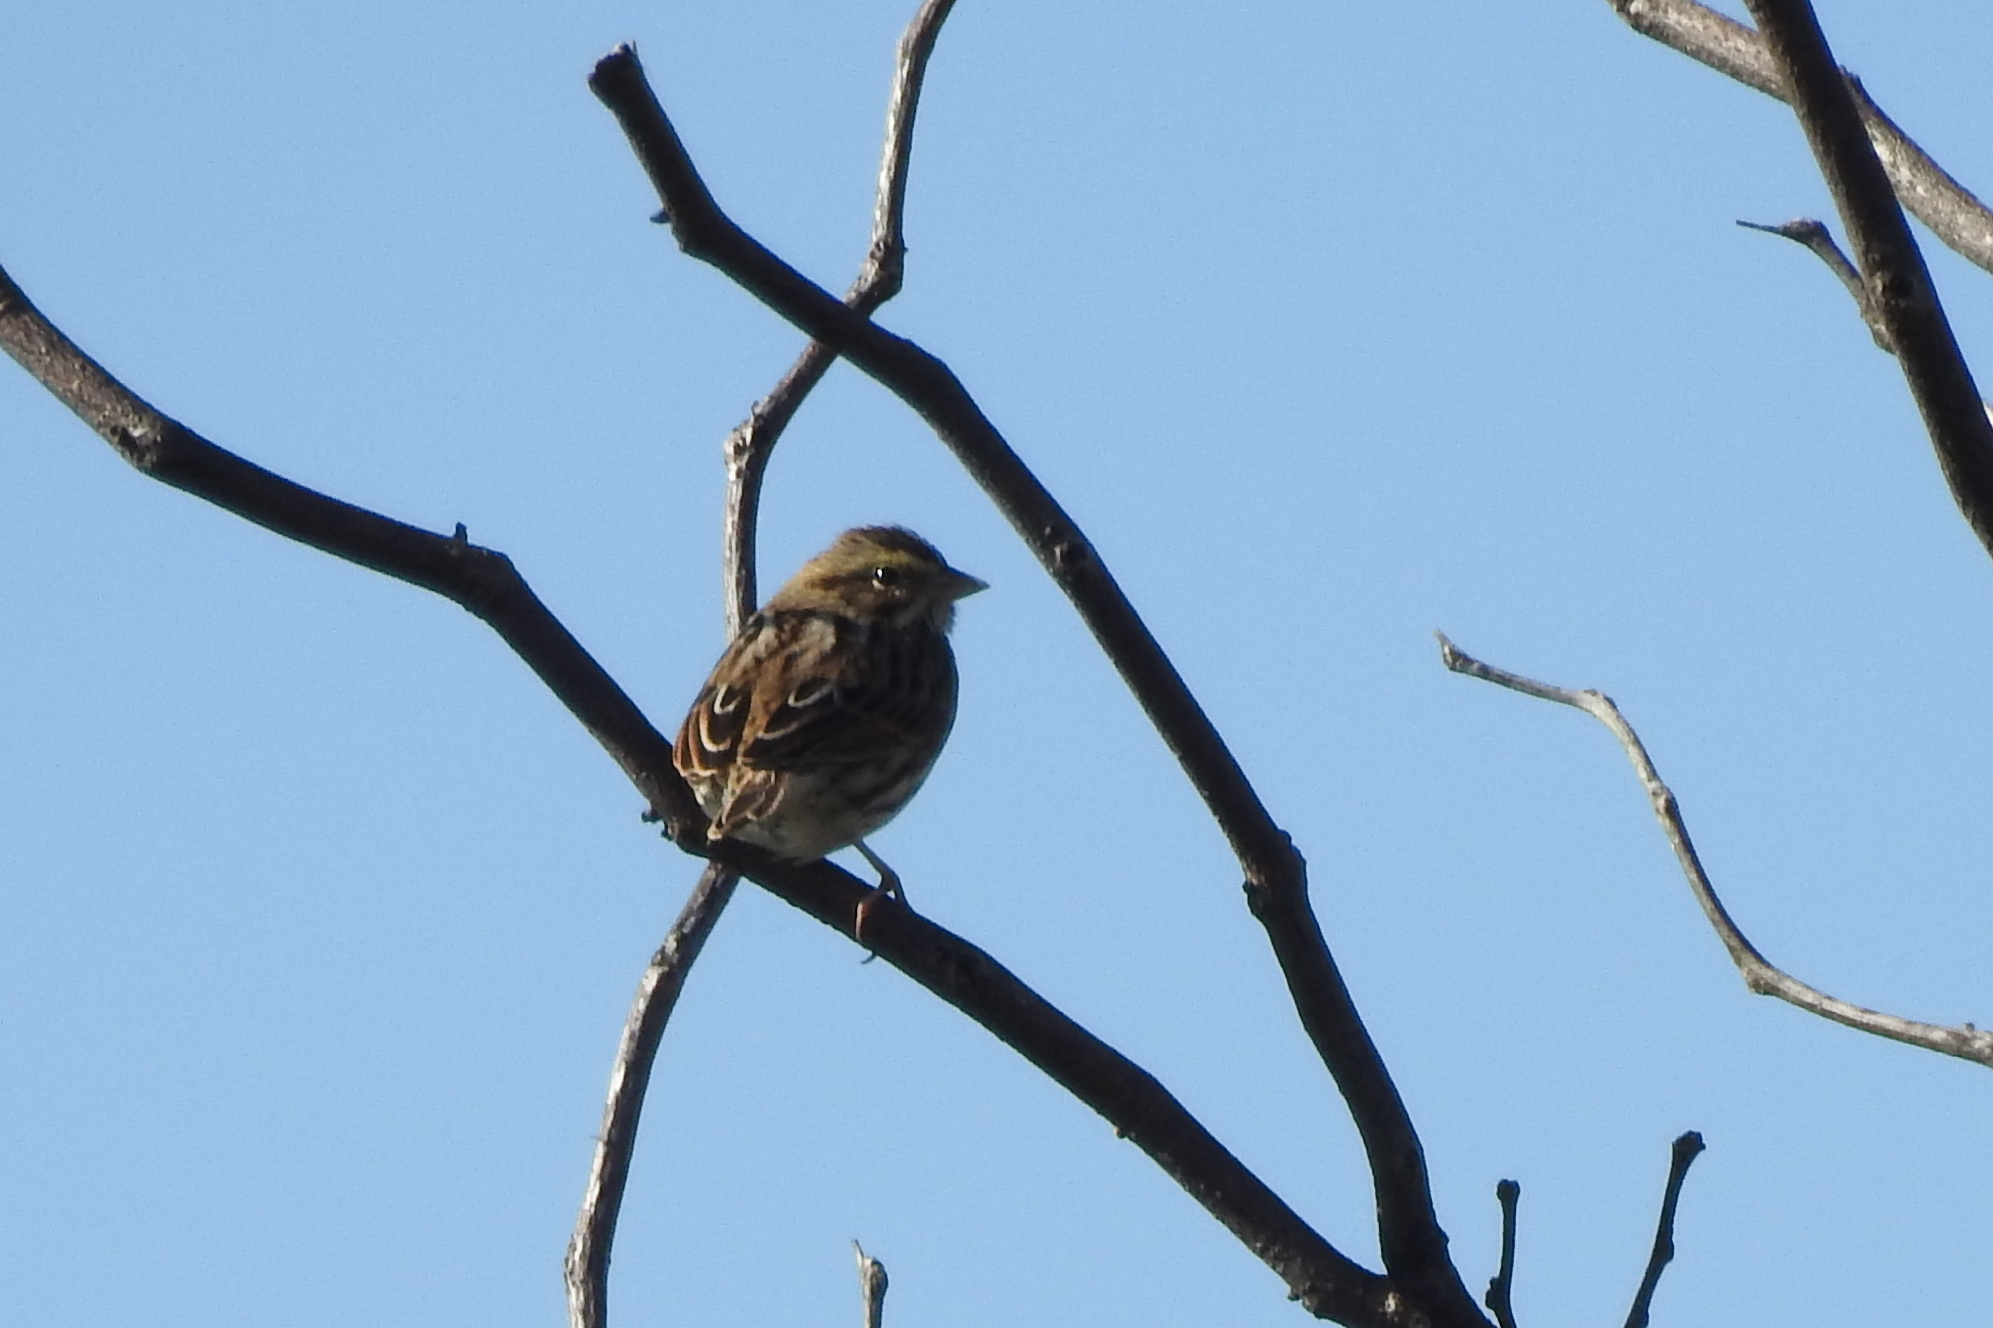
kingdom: Animalia
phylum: Chordata
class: Aves
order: Passeriformes
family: Passerellidae
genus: Passerculus
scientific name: Passerculus sandwichensis
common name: Savannah sparrow
